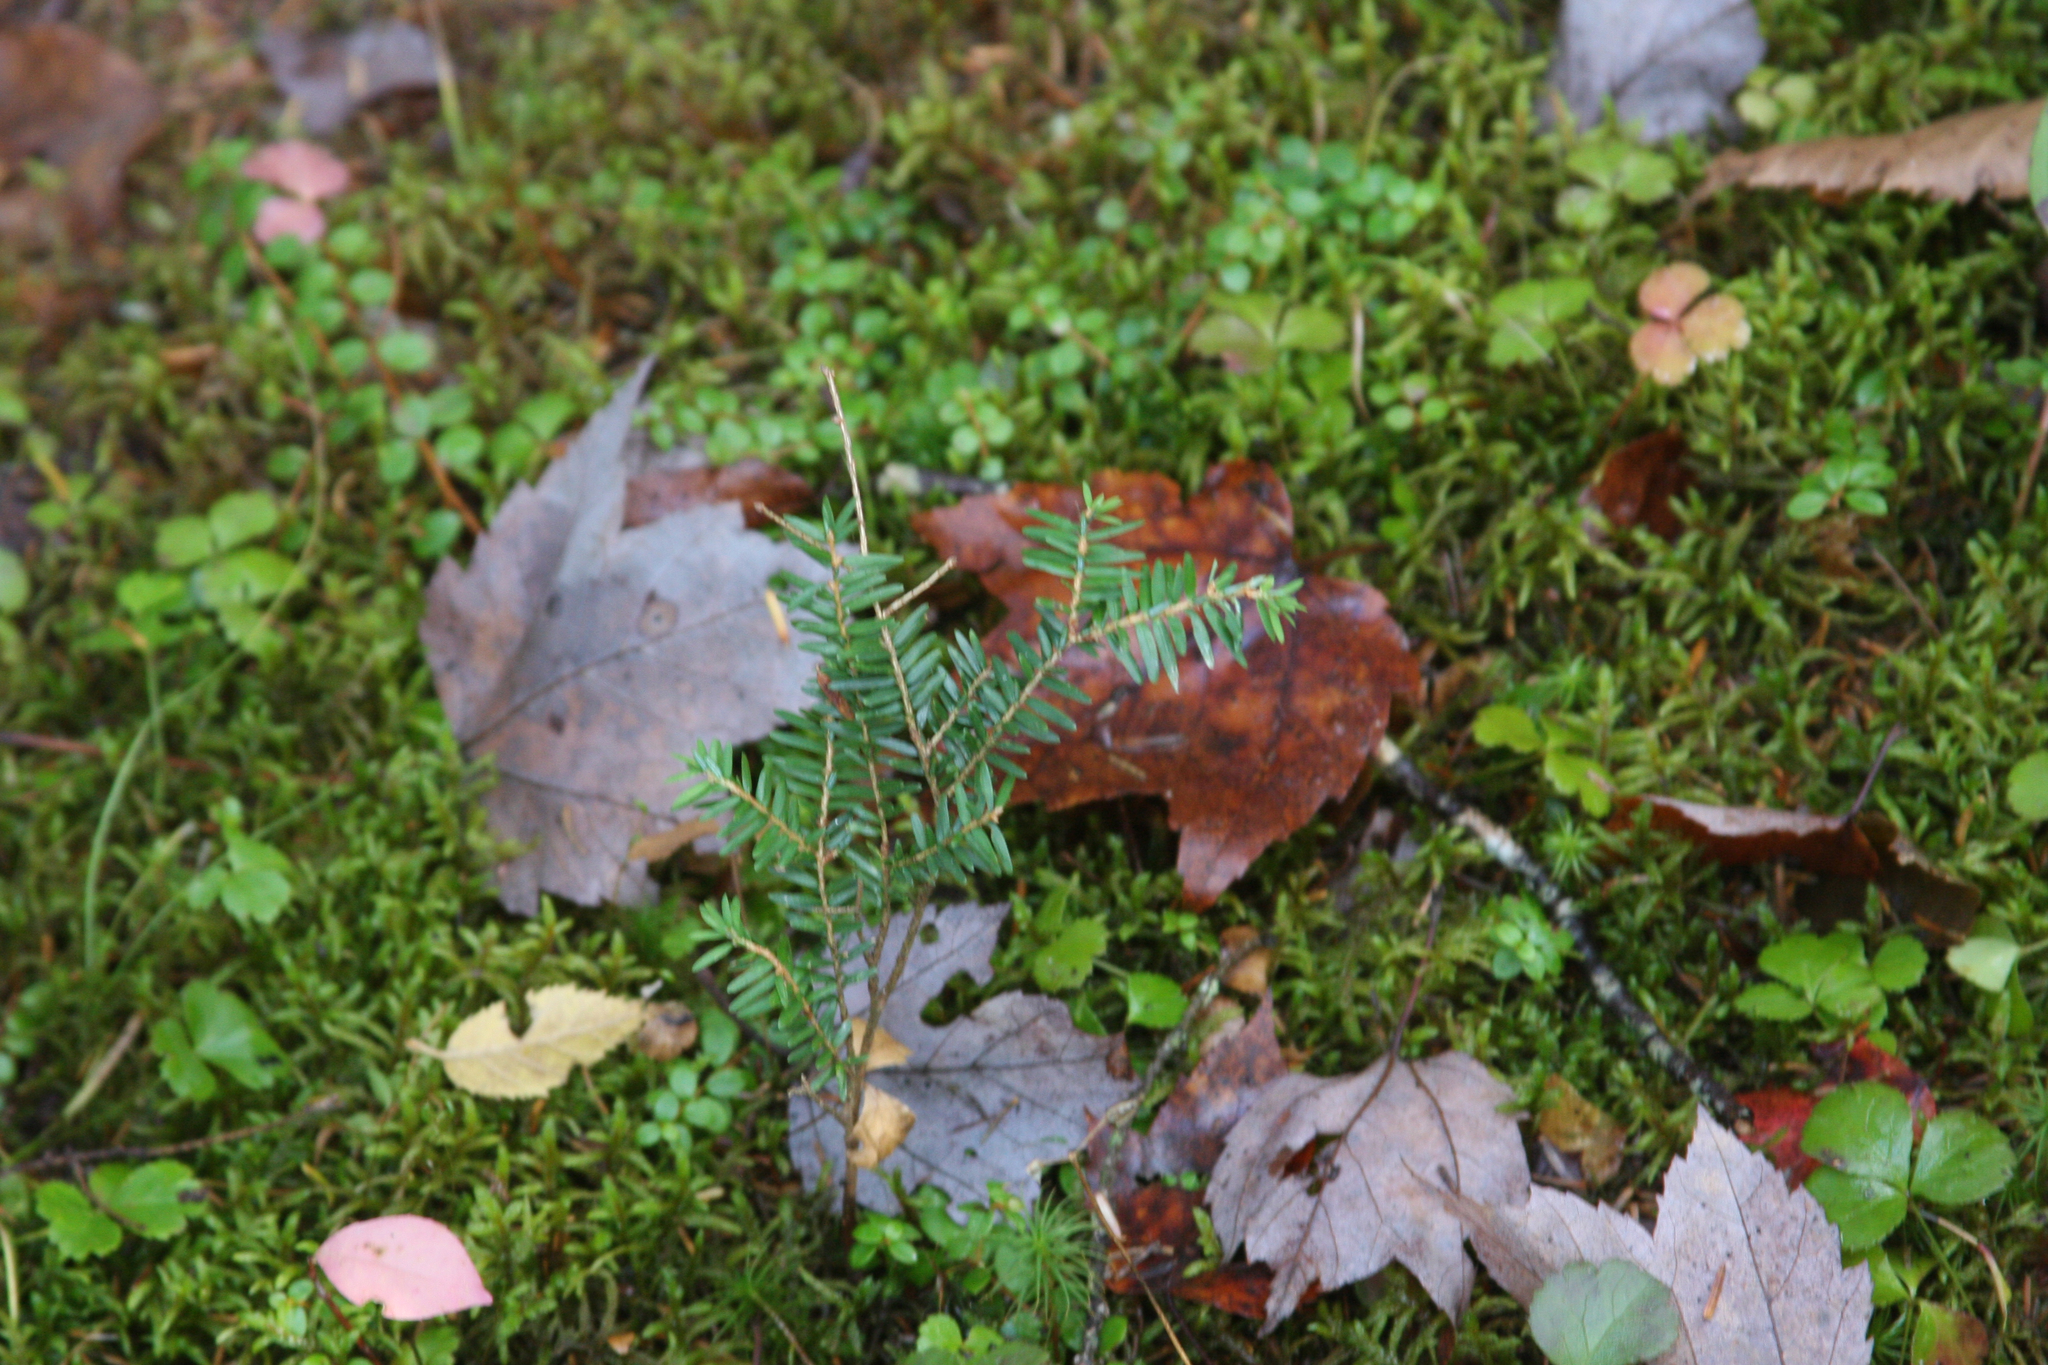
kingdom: Plantae
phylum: Tracheophyta
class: Pinopsida
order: Pinales
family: Pinaceae
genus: Tsuga
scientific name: Tsuga canadensis
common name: Eastern hemlock
